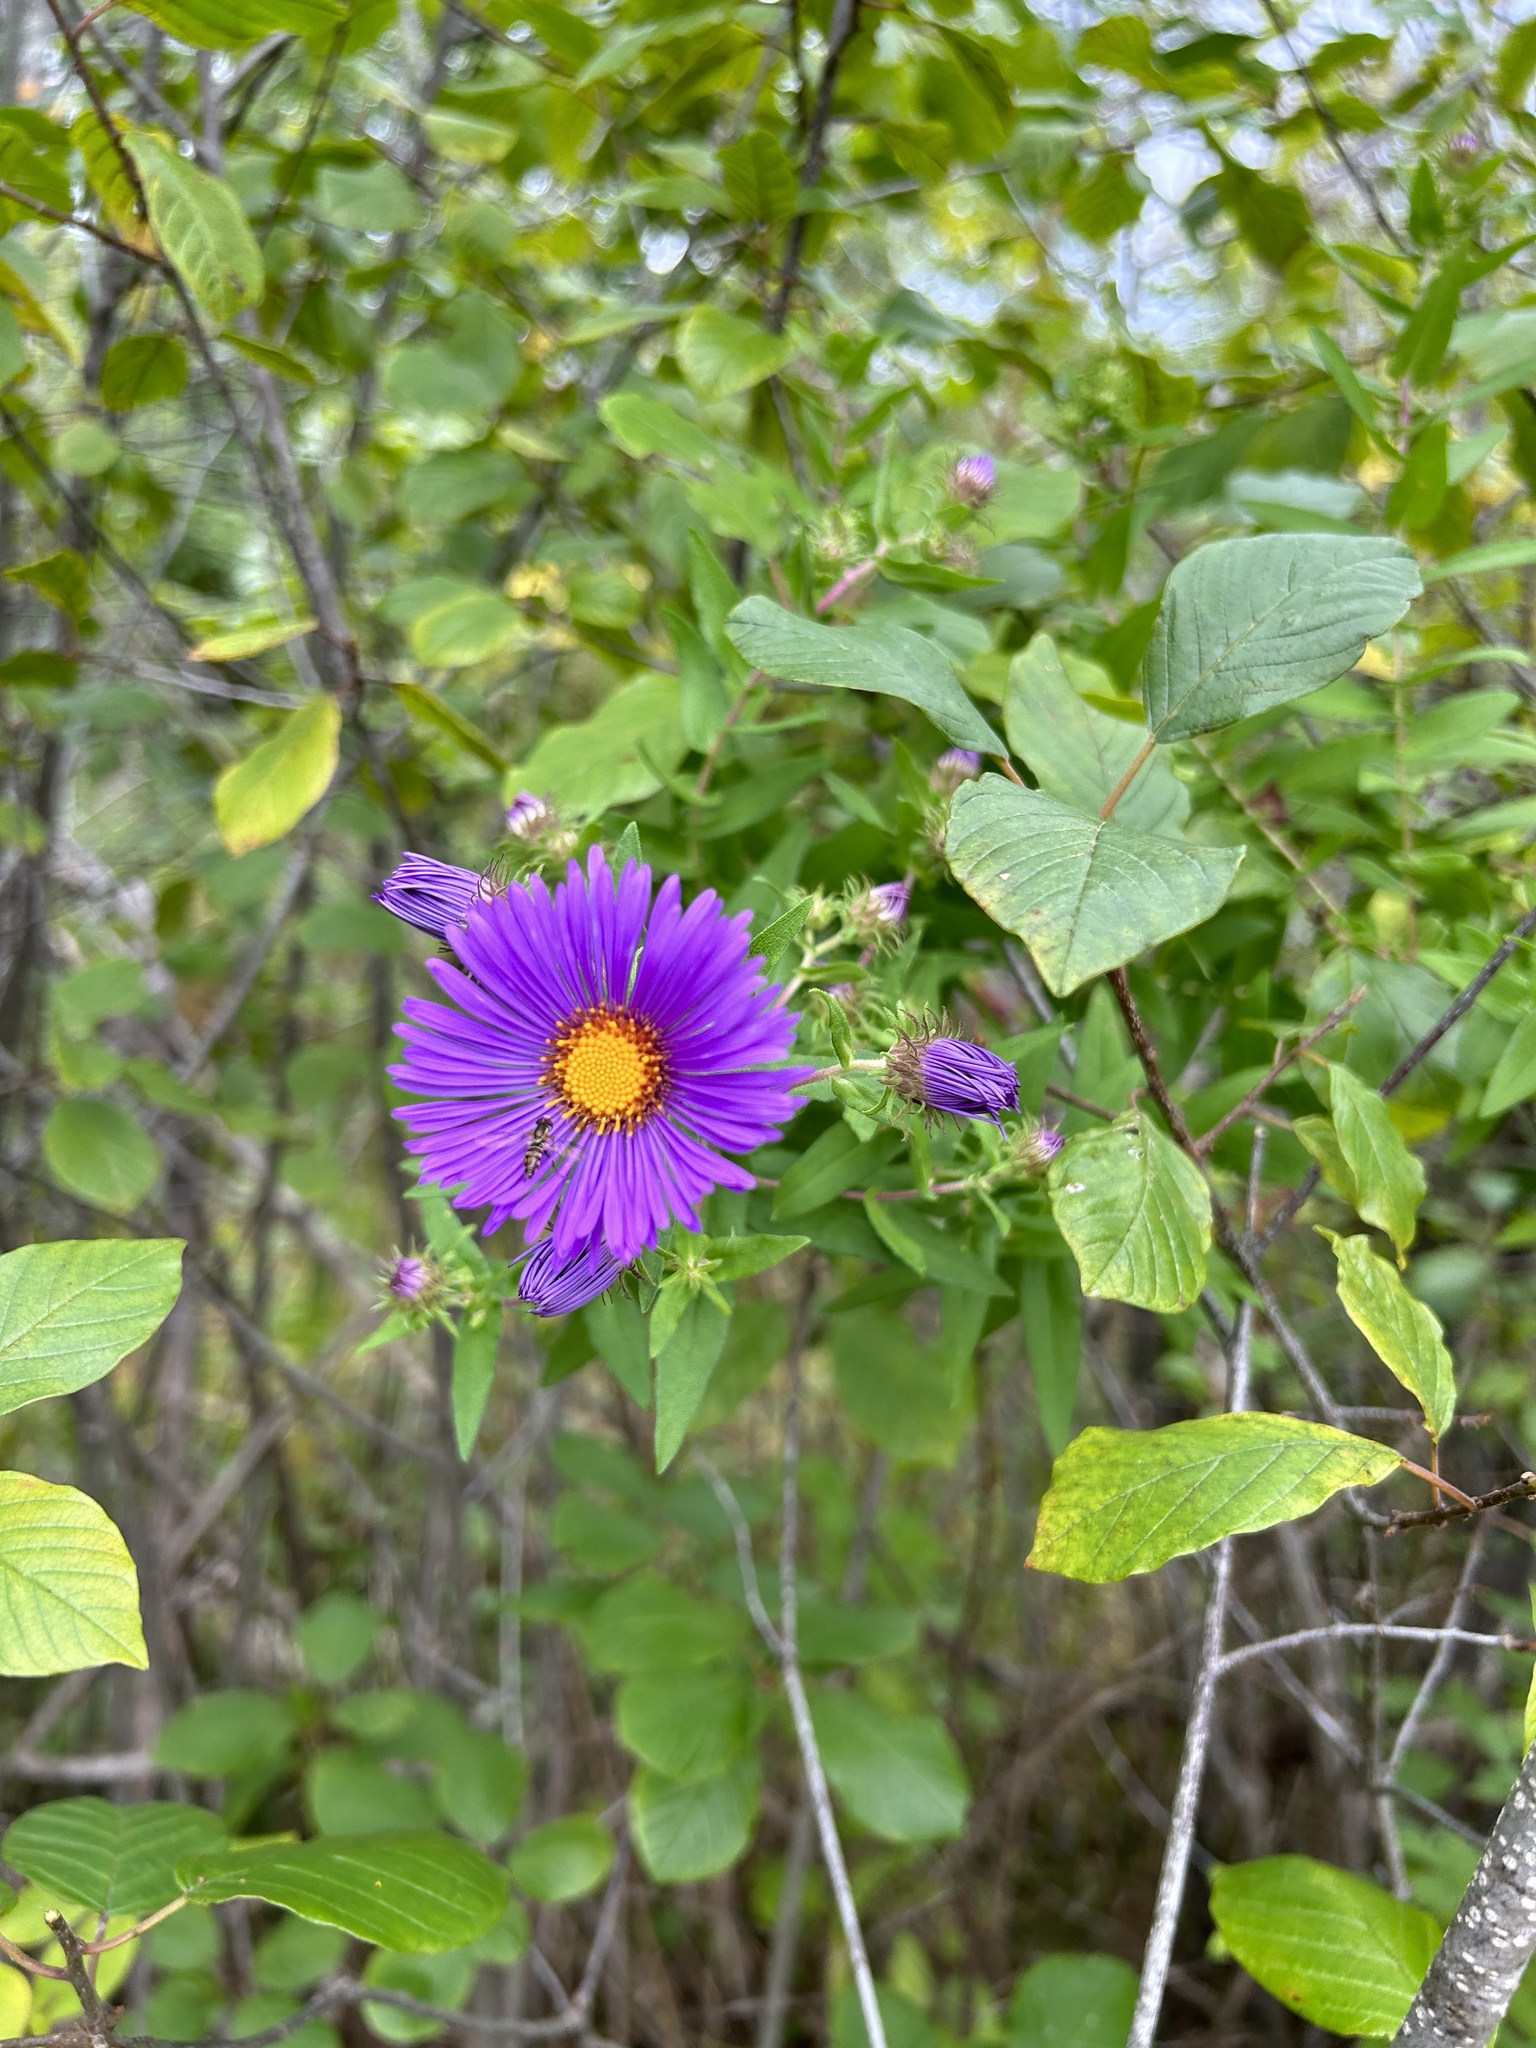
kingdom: Plantae
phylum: Tracheophyta
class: Magnoliopsida
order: Asterales
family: Asteraceae
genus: Symphyotrichum
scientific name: Symphyotrichum novae-angliae
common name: Michaelmas daisy
